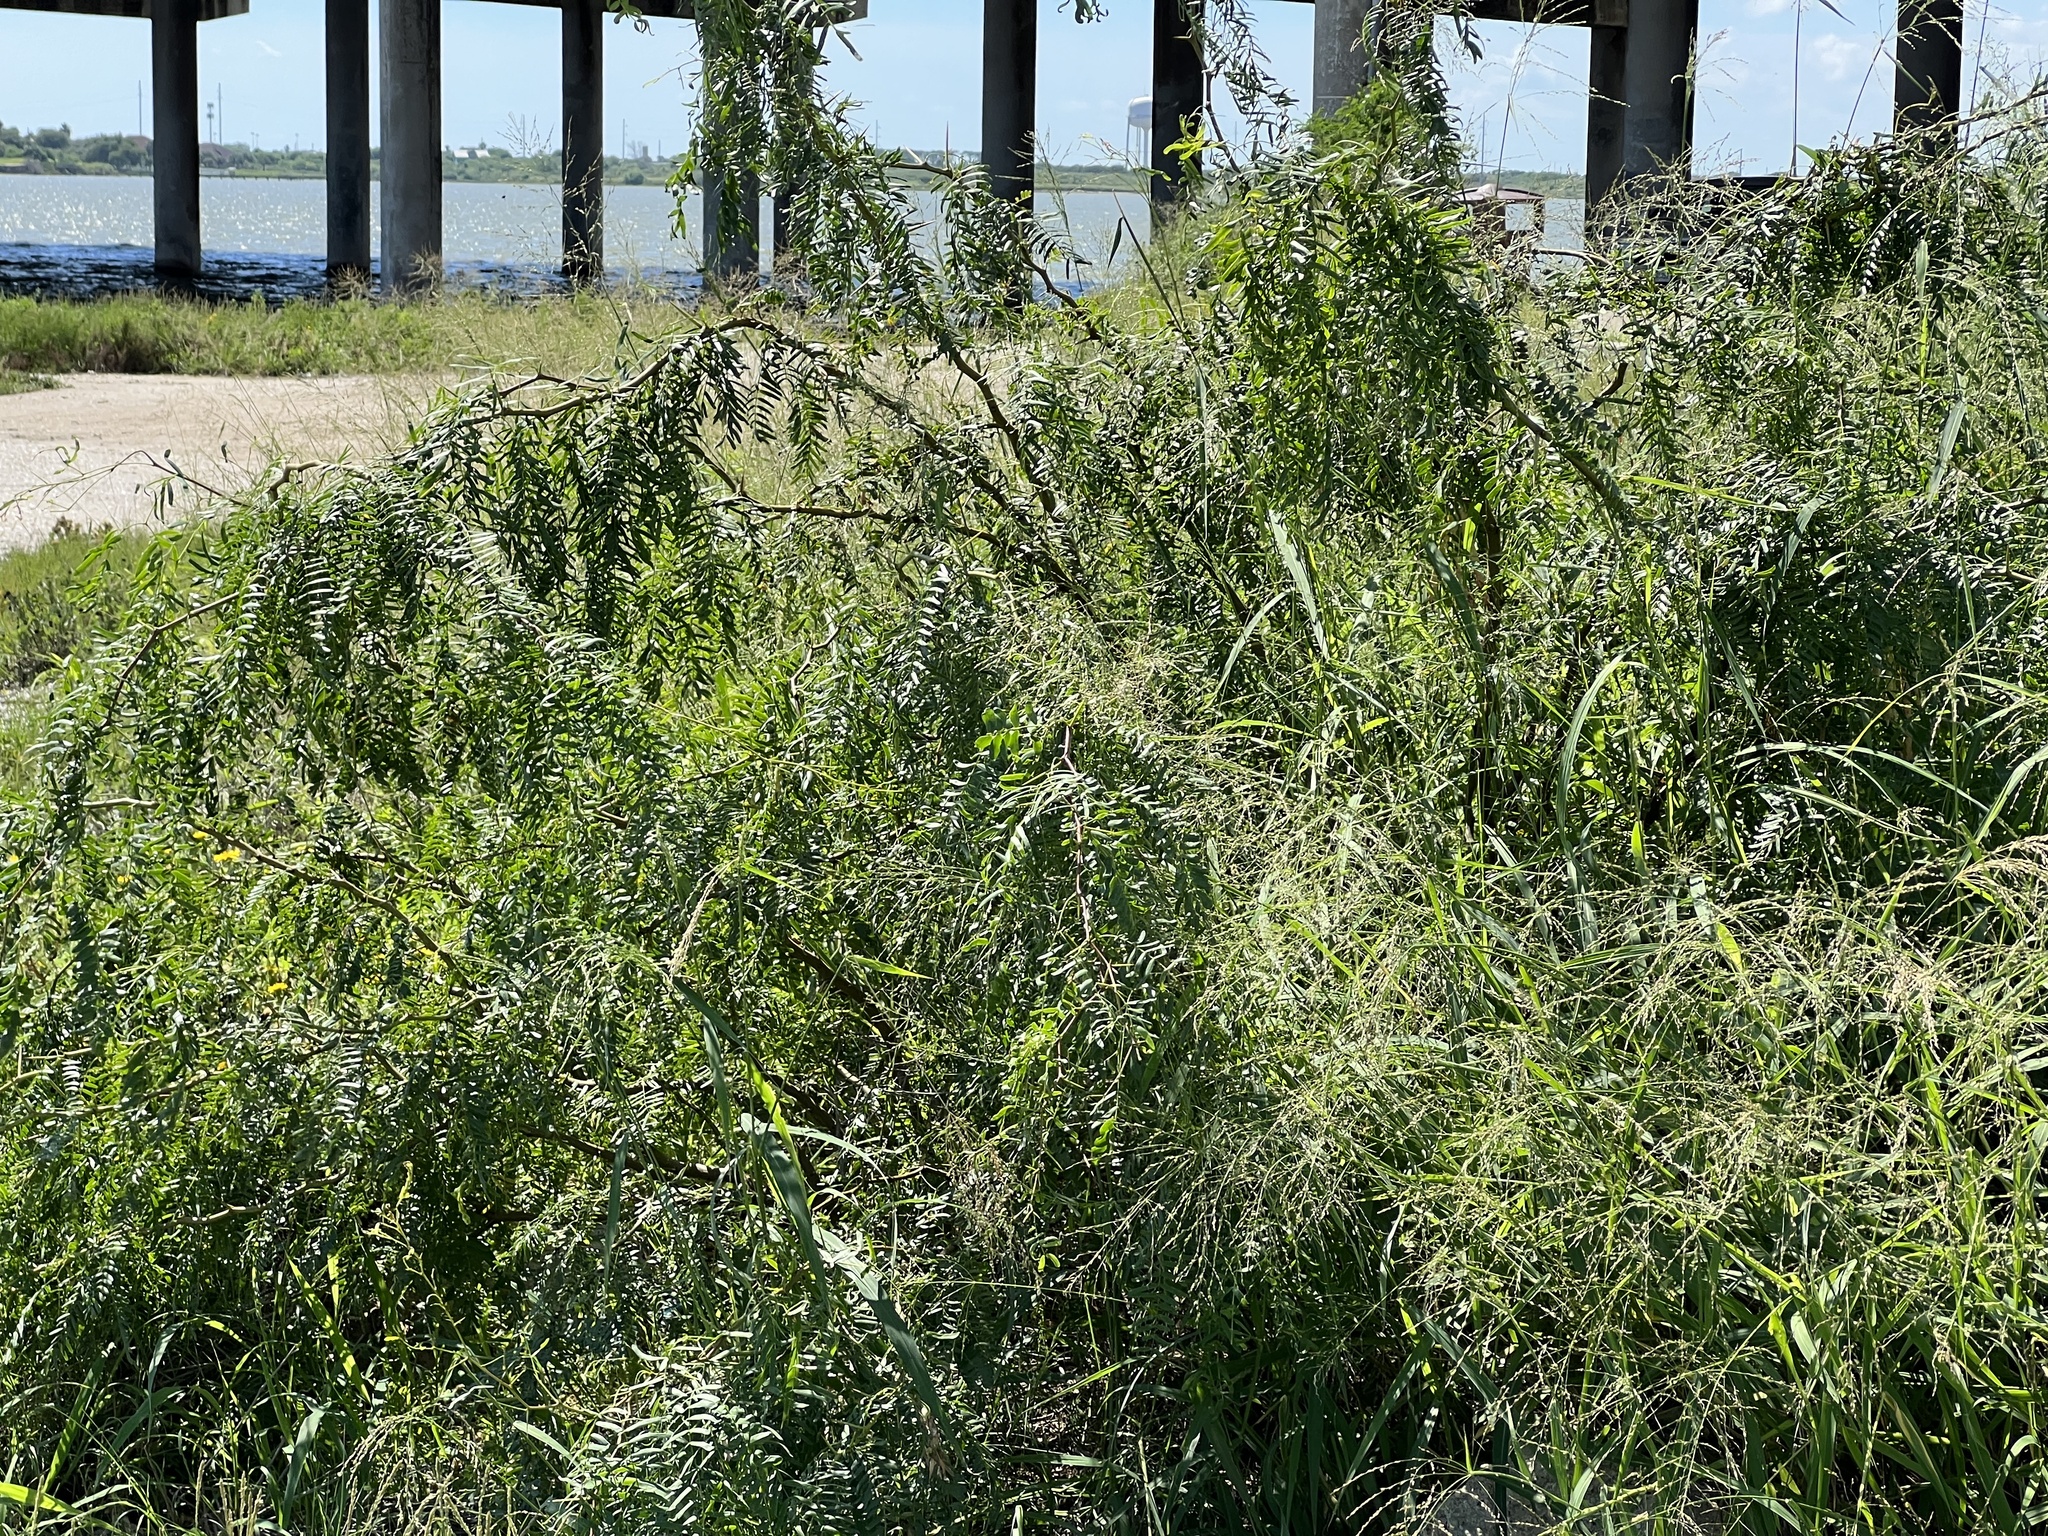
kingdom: Plantae
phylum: Tracheophyta
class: Magnoliopsida
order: Fabales
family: Fabaceae
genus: Prosopis
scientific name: Prosopis glandulosa
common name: Honey mesquite
